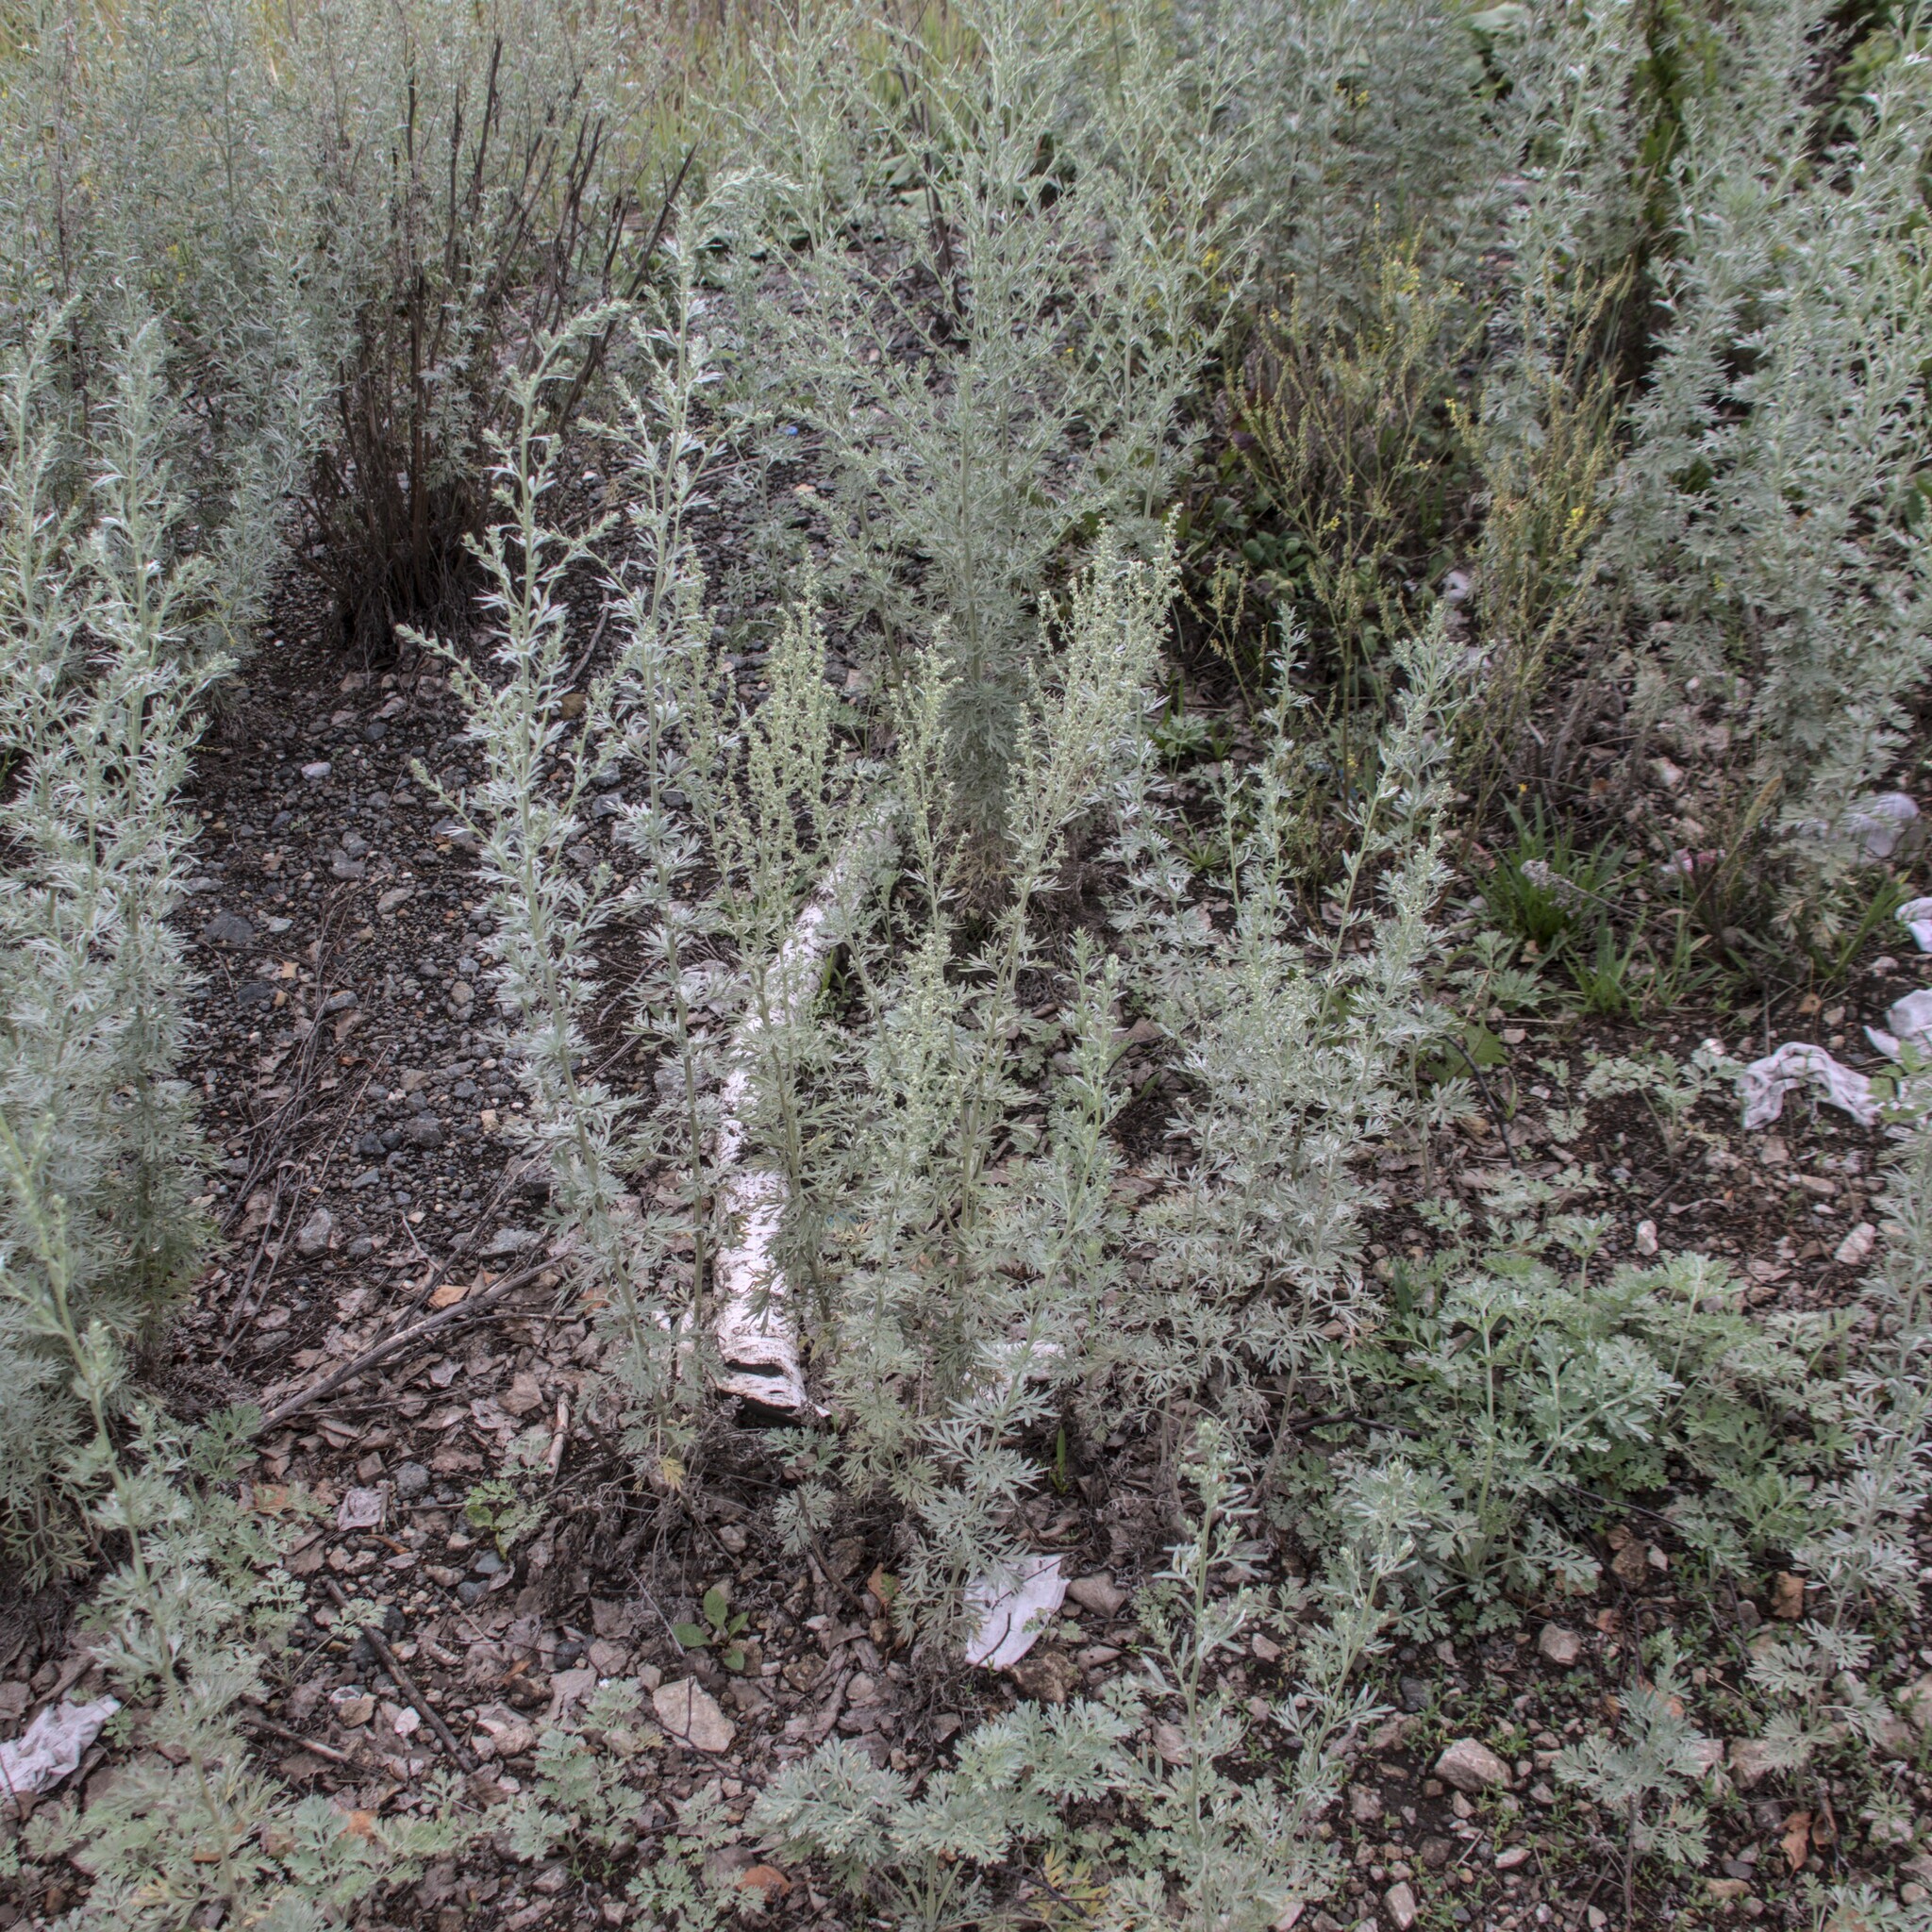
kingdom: Plantae
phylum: Tracheophyta
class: Magnoliopsida
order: Asterales
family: Asteraceae
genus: Artemisia
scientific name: Artemisia absinthium
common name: Wormwood
